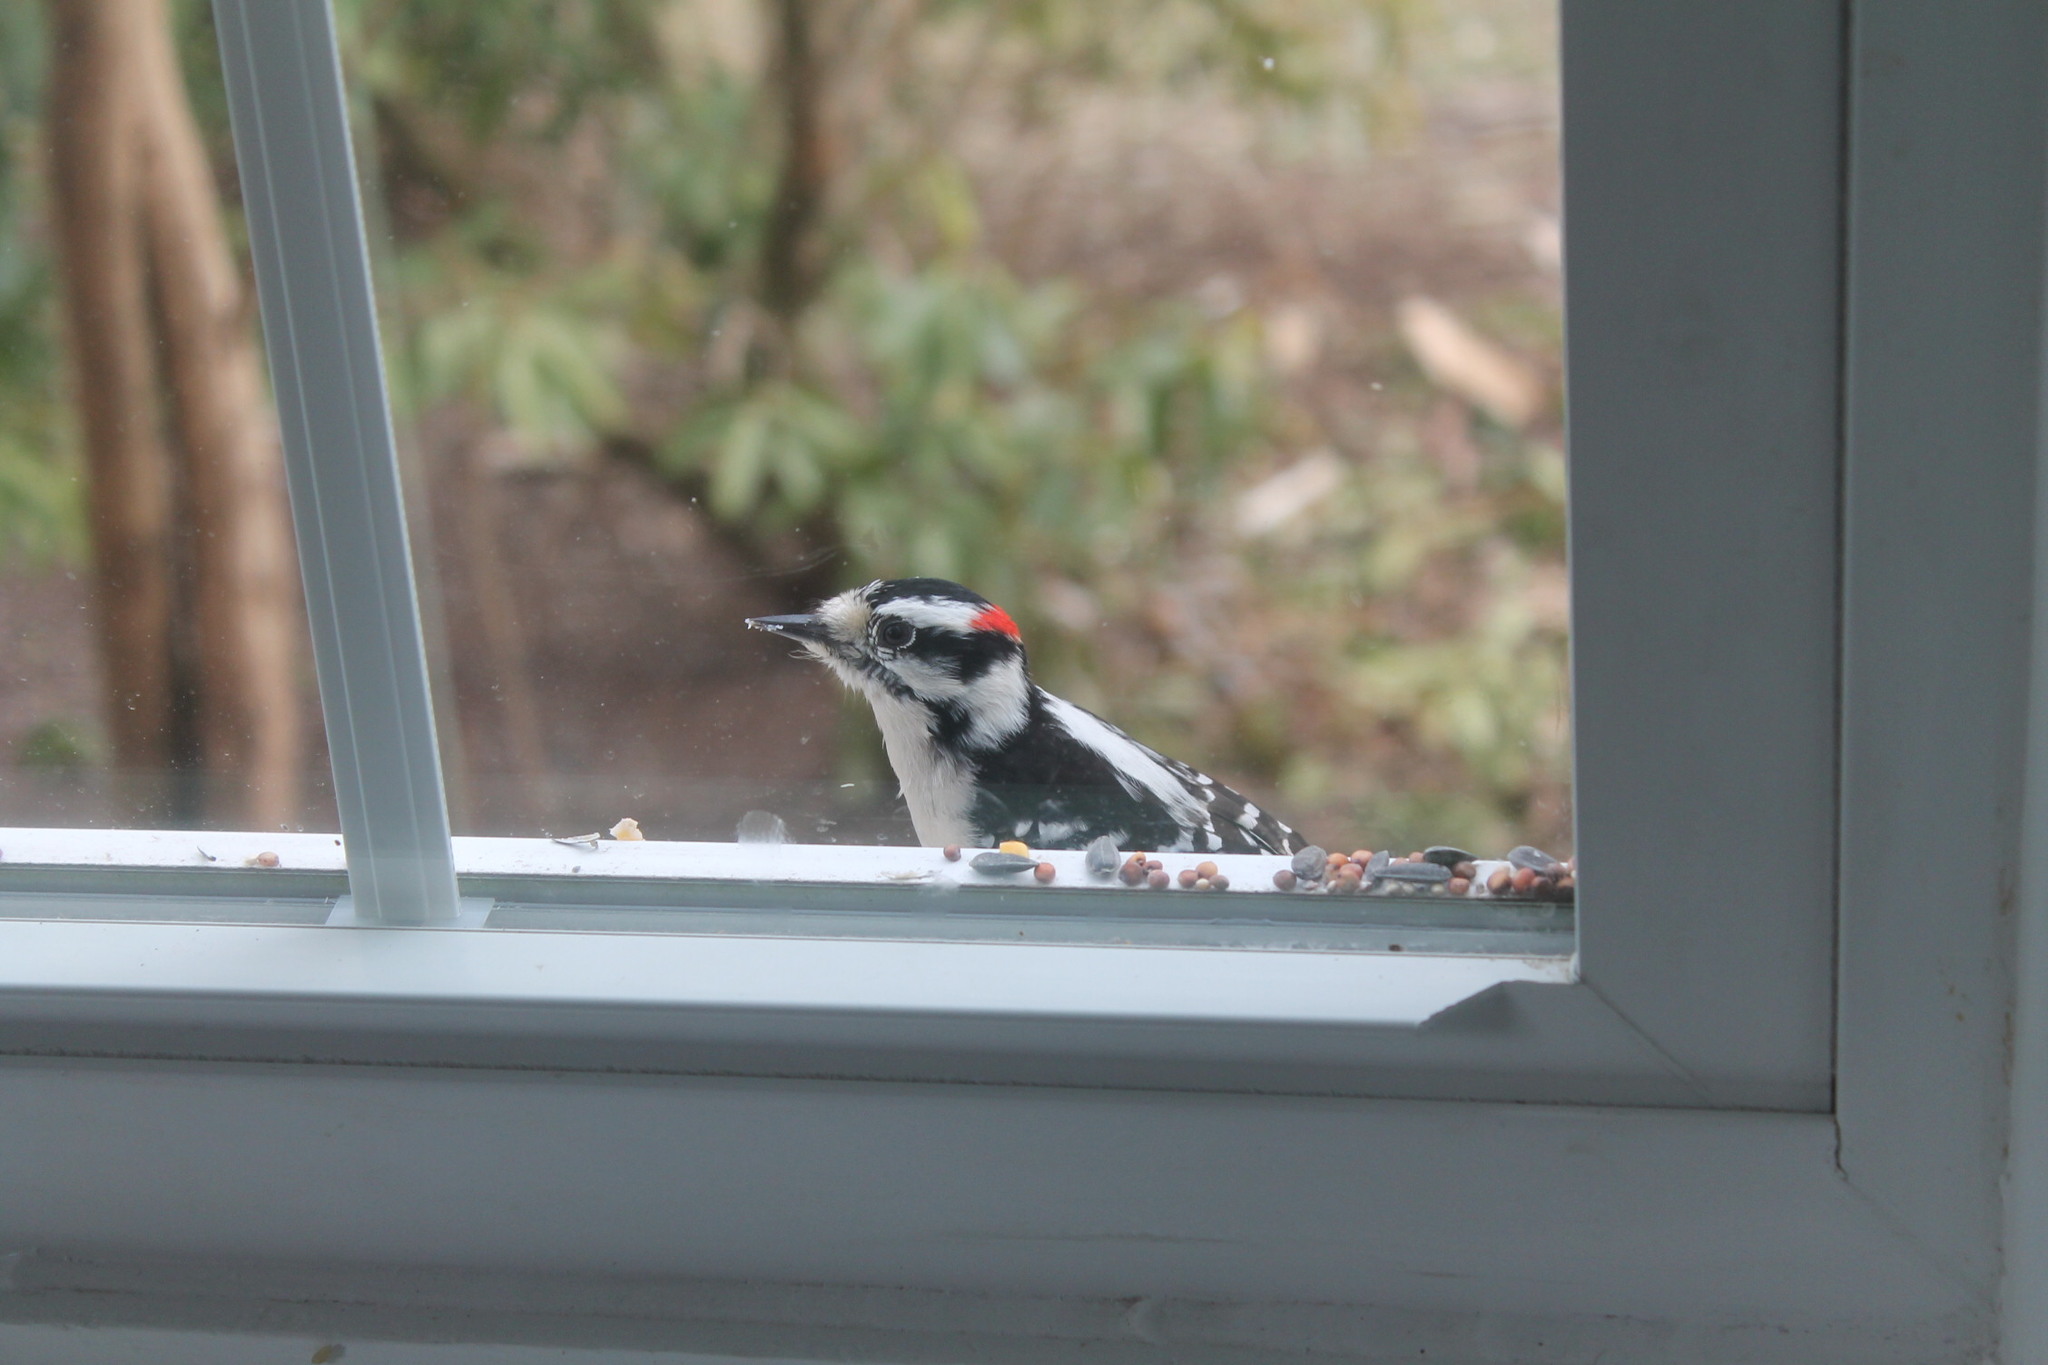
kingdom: Animalia
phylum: Chordata
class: Aves
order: Piciformes
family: Picidae
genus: Dryobates
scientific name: Dryobates pubescens
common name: Downy woodpecker
